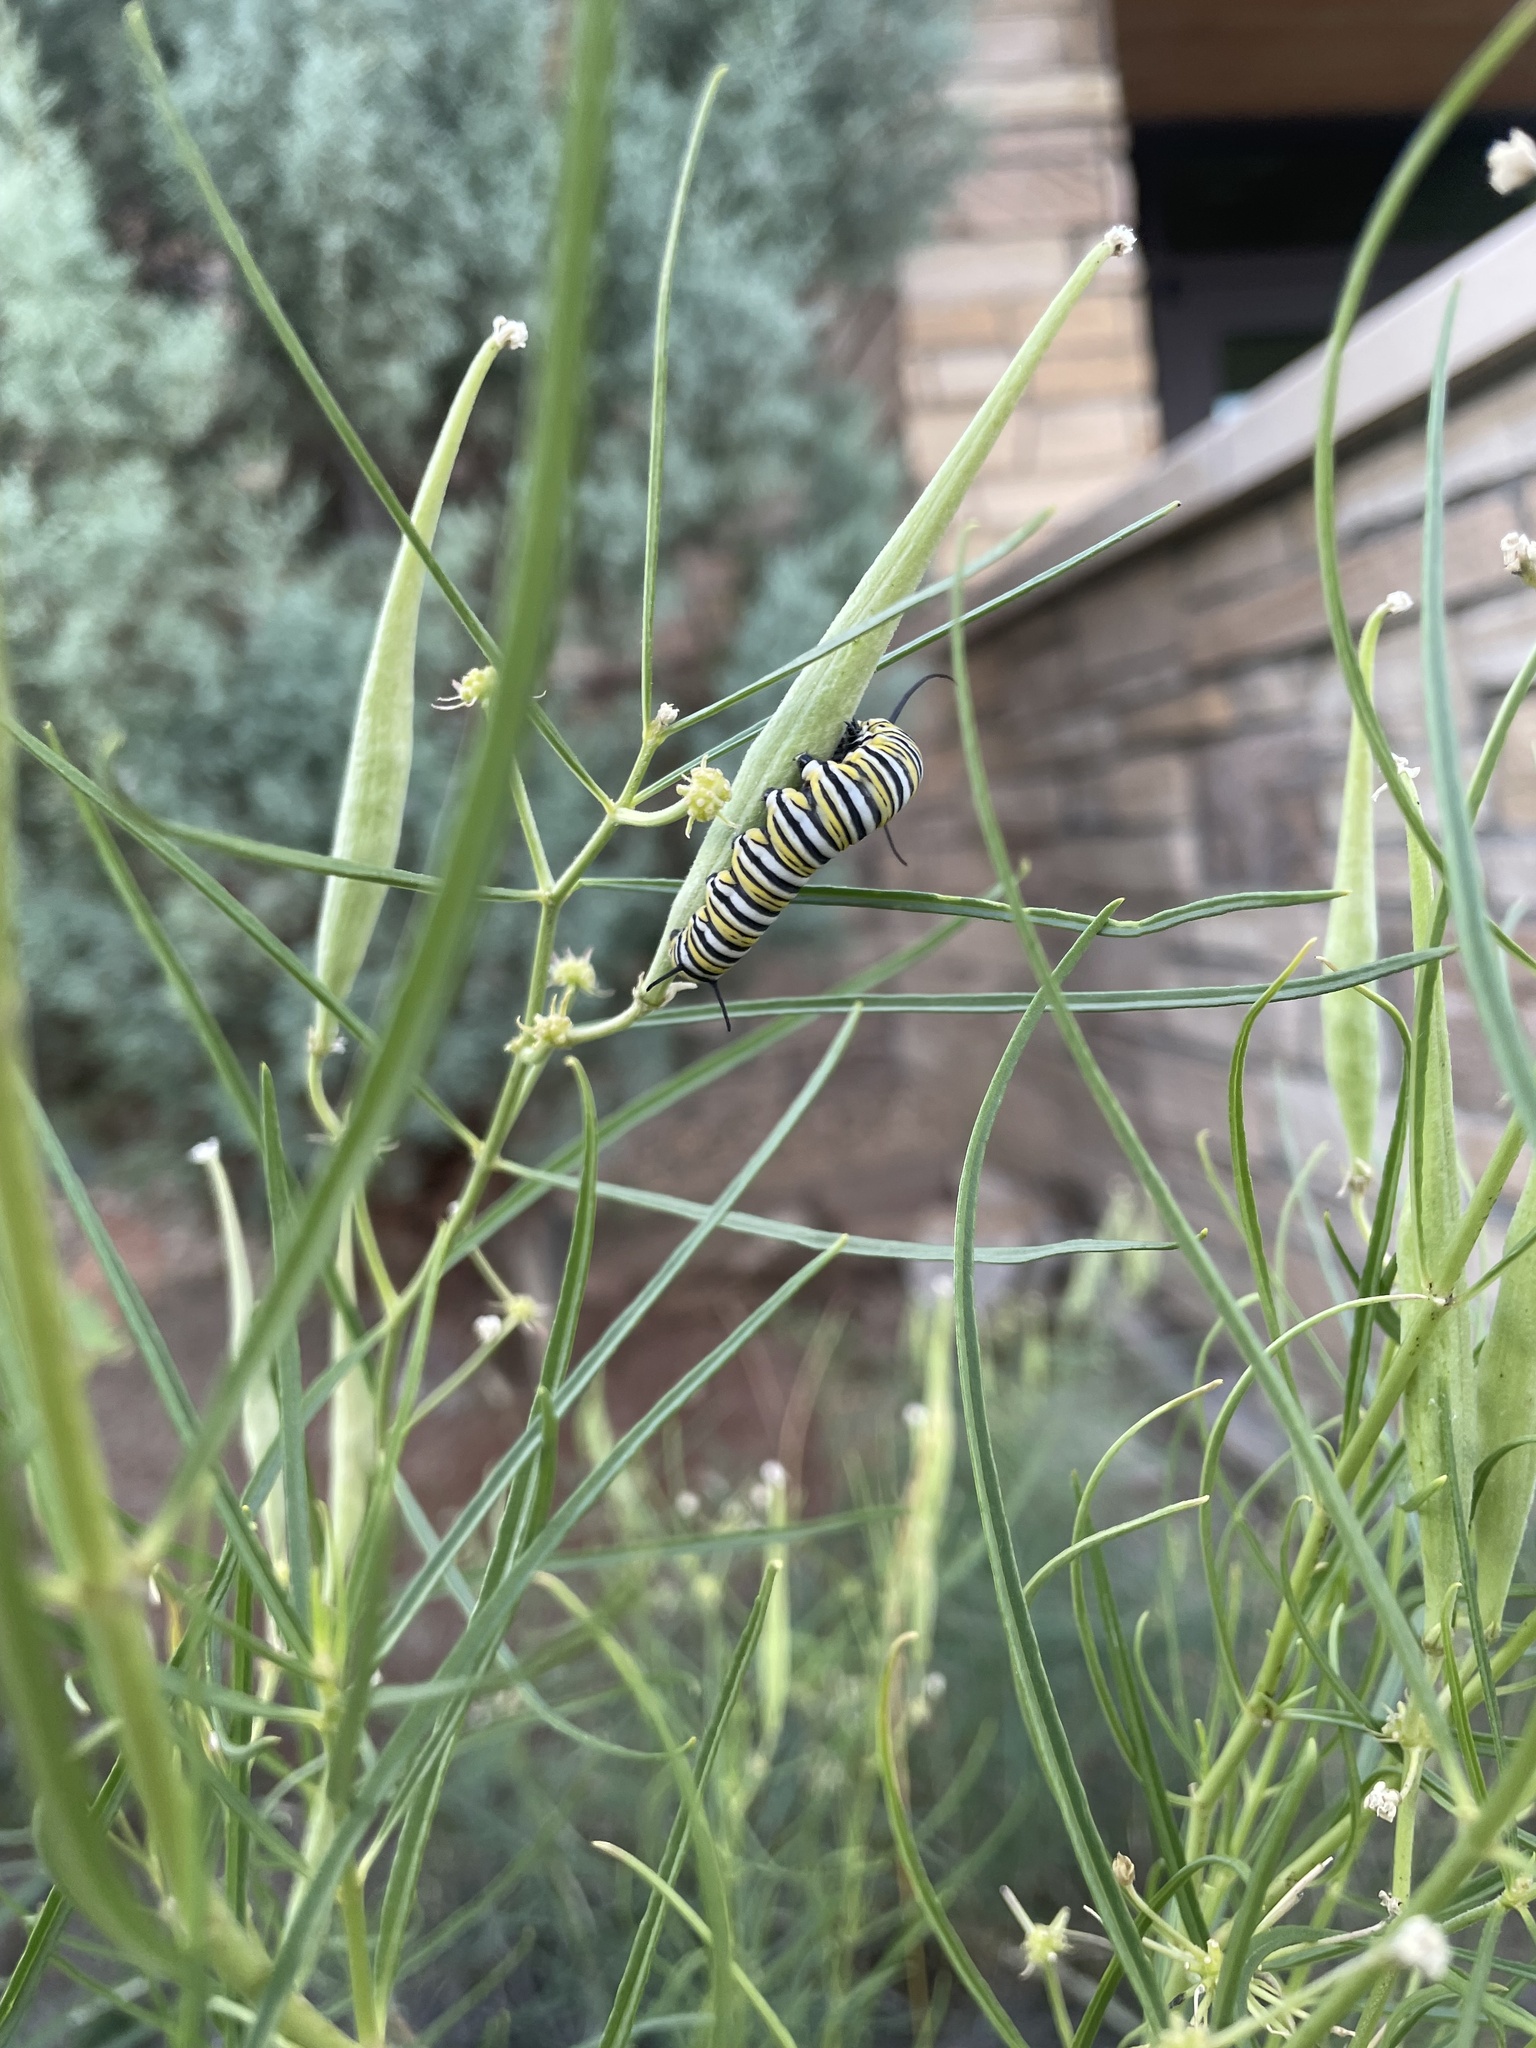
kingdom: Animalia
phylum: Arthropoda
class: Insecta
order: Lepidoptera
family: Nymphalidae
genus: Danaus
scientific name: Danaus plexippus
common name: Monarch
